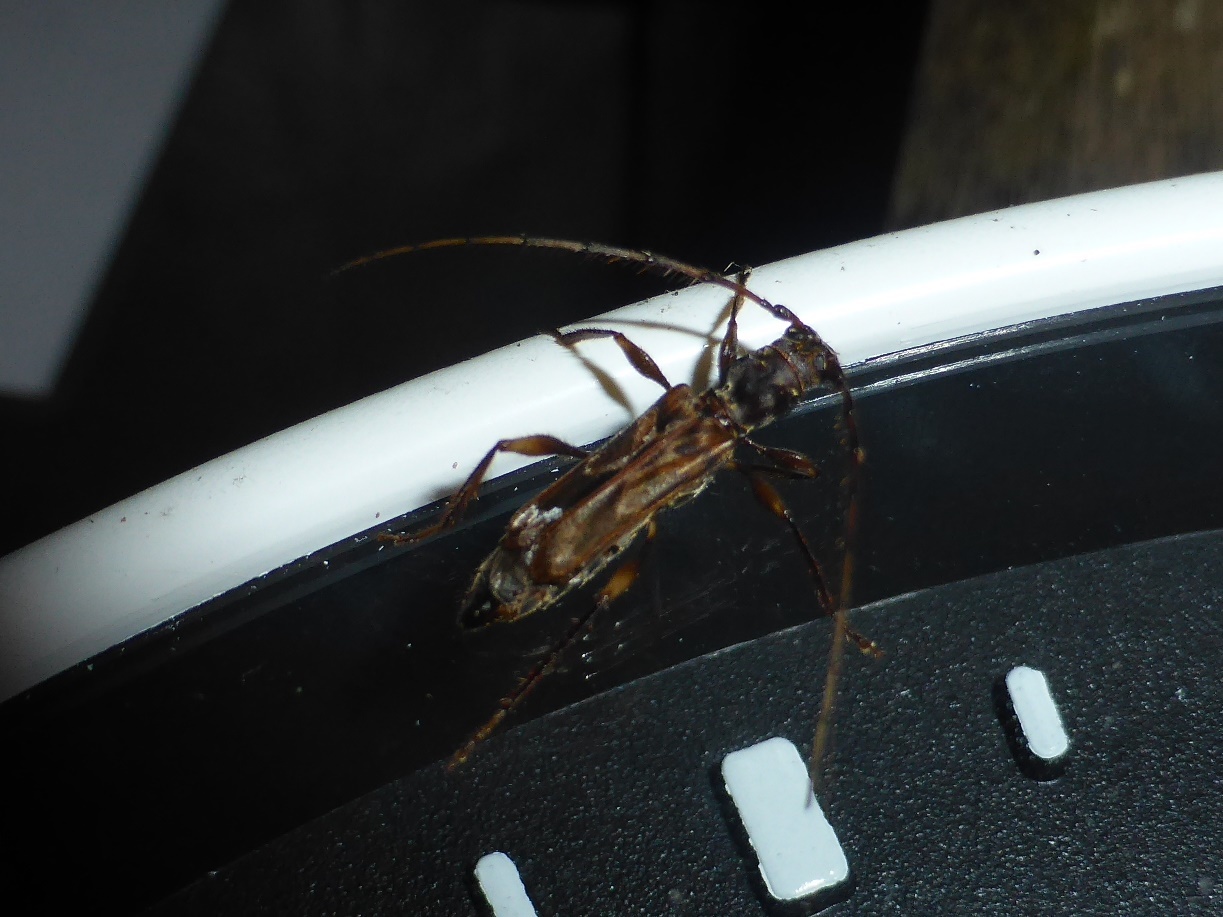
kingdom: Animalia
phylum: Arthropoda
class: Insecta
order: Coleoptera
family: Cerambycidae
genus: Ozodes
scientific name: Ozodes infuscatus
